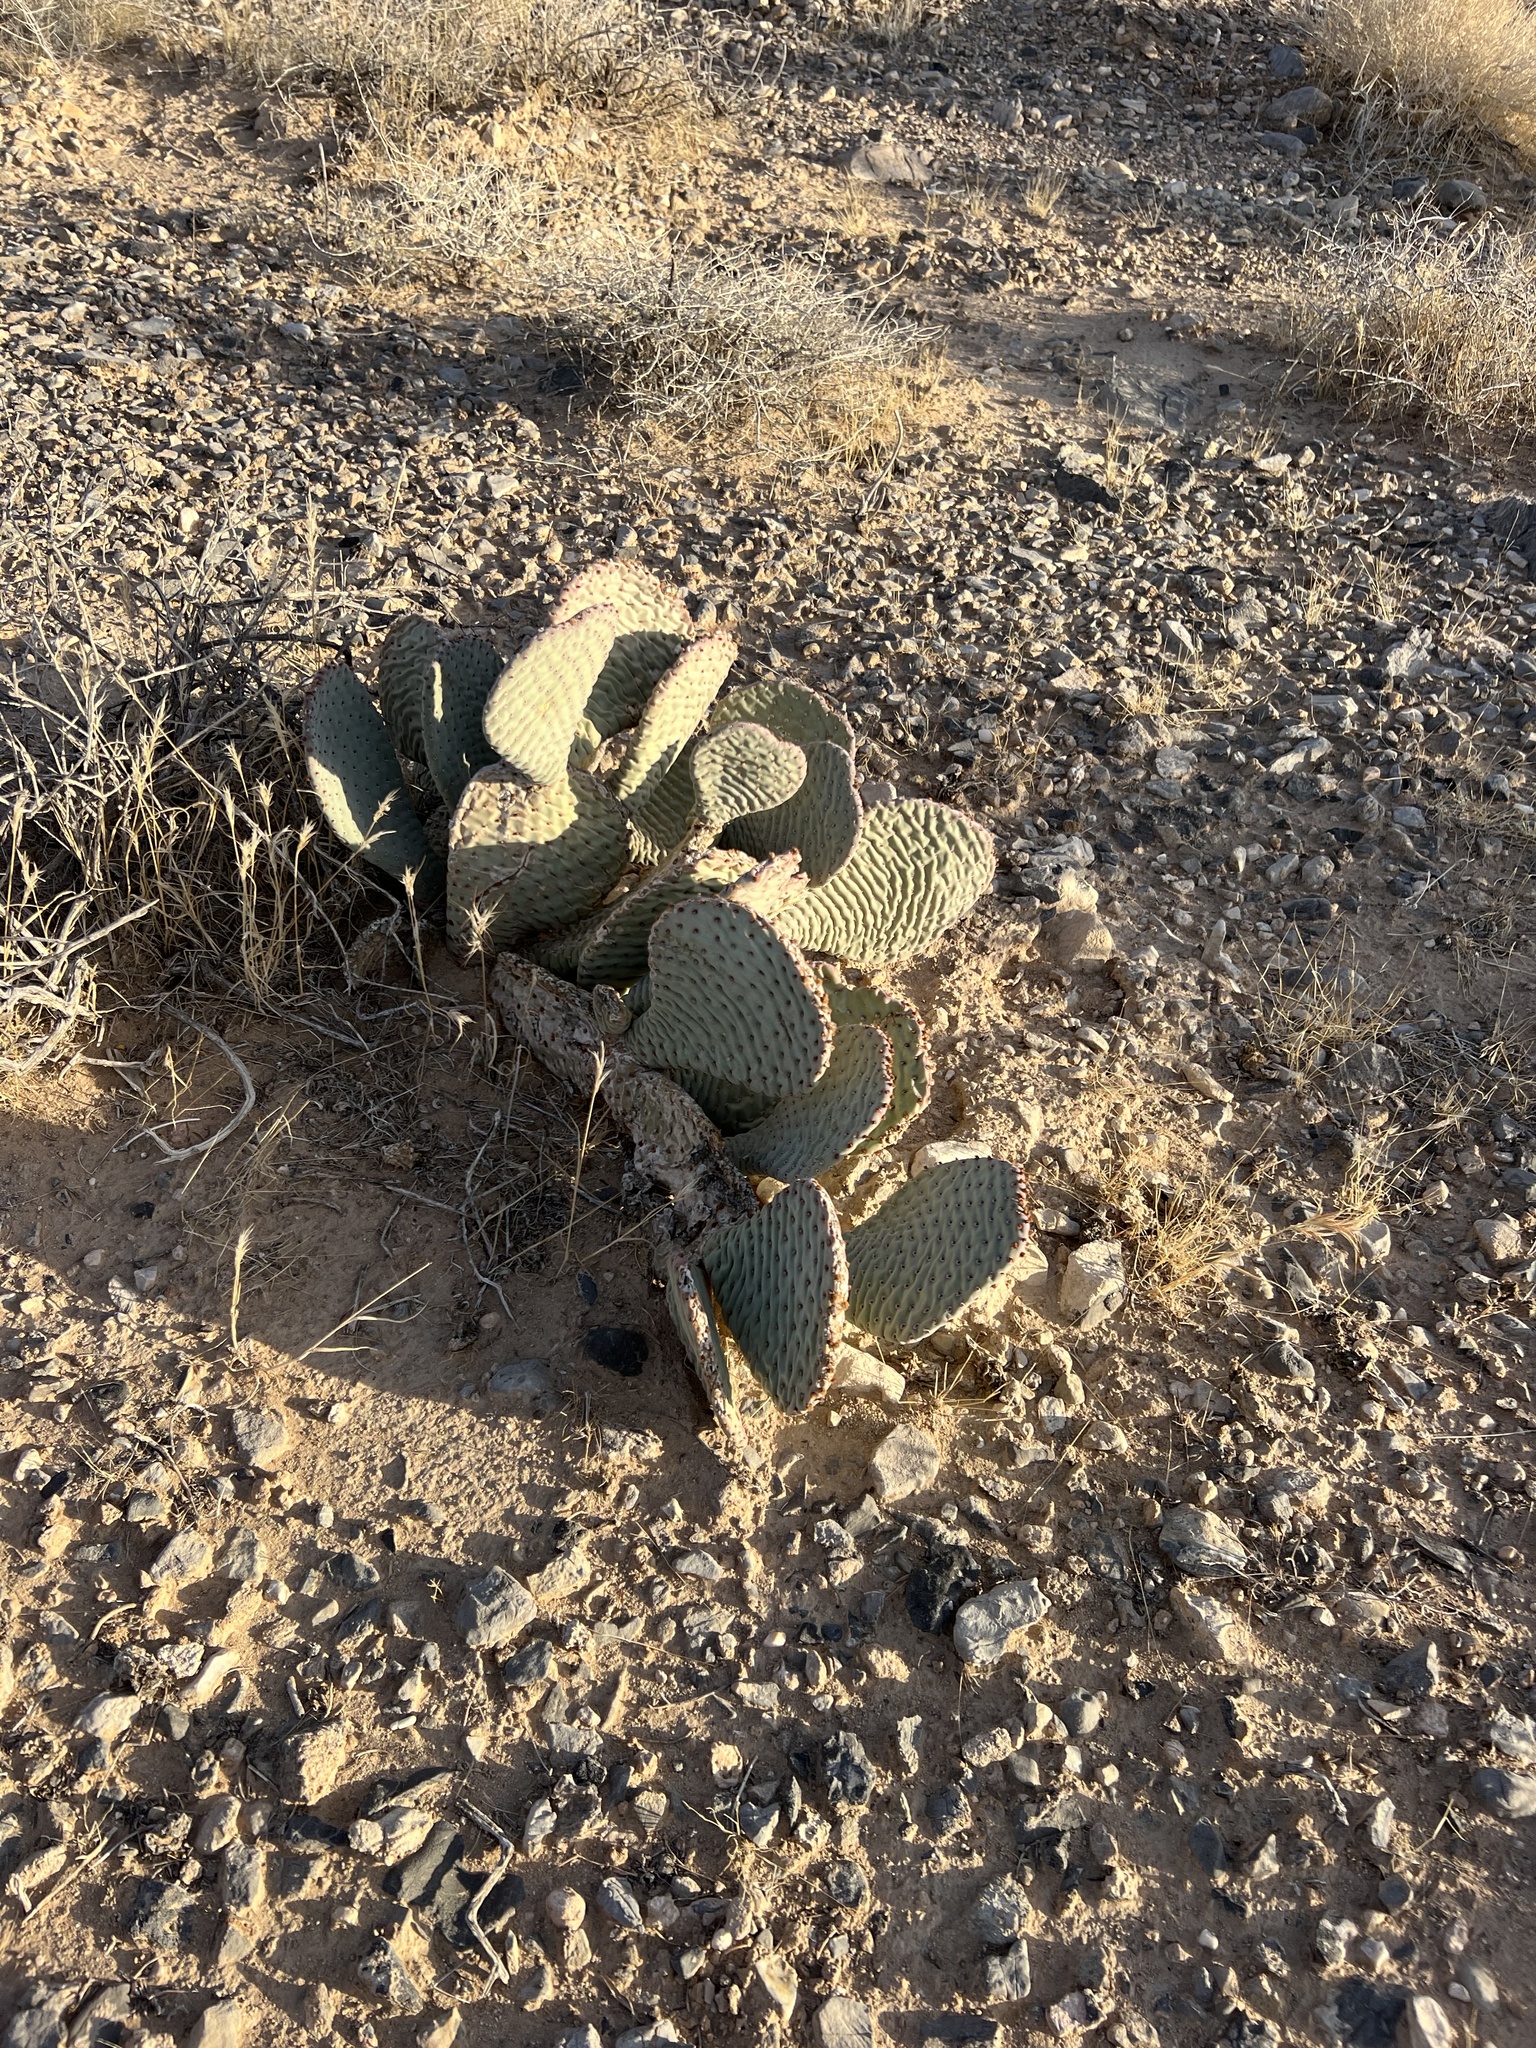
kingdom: Plantae
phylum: Tracheophyta
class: Magnoliopsida
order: Caryophyllales
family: Cactaceae
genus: Opuntia
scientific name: Opuntia basilaris
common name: Beavertail prickly-pear
